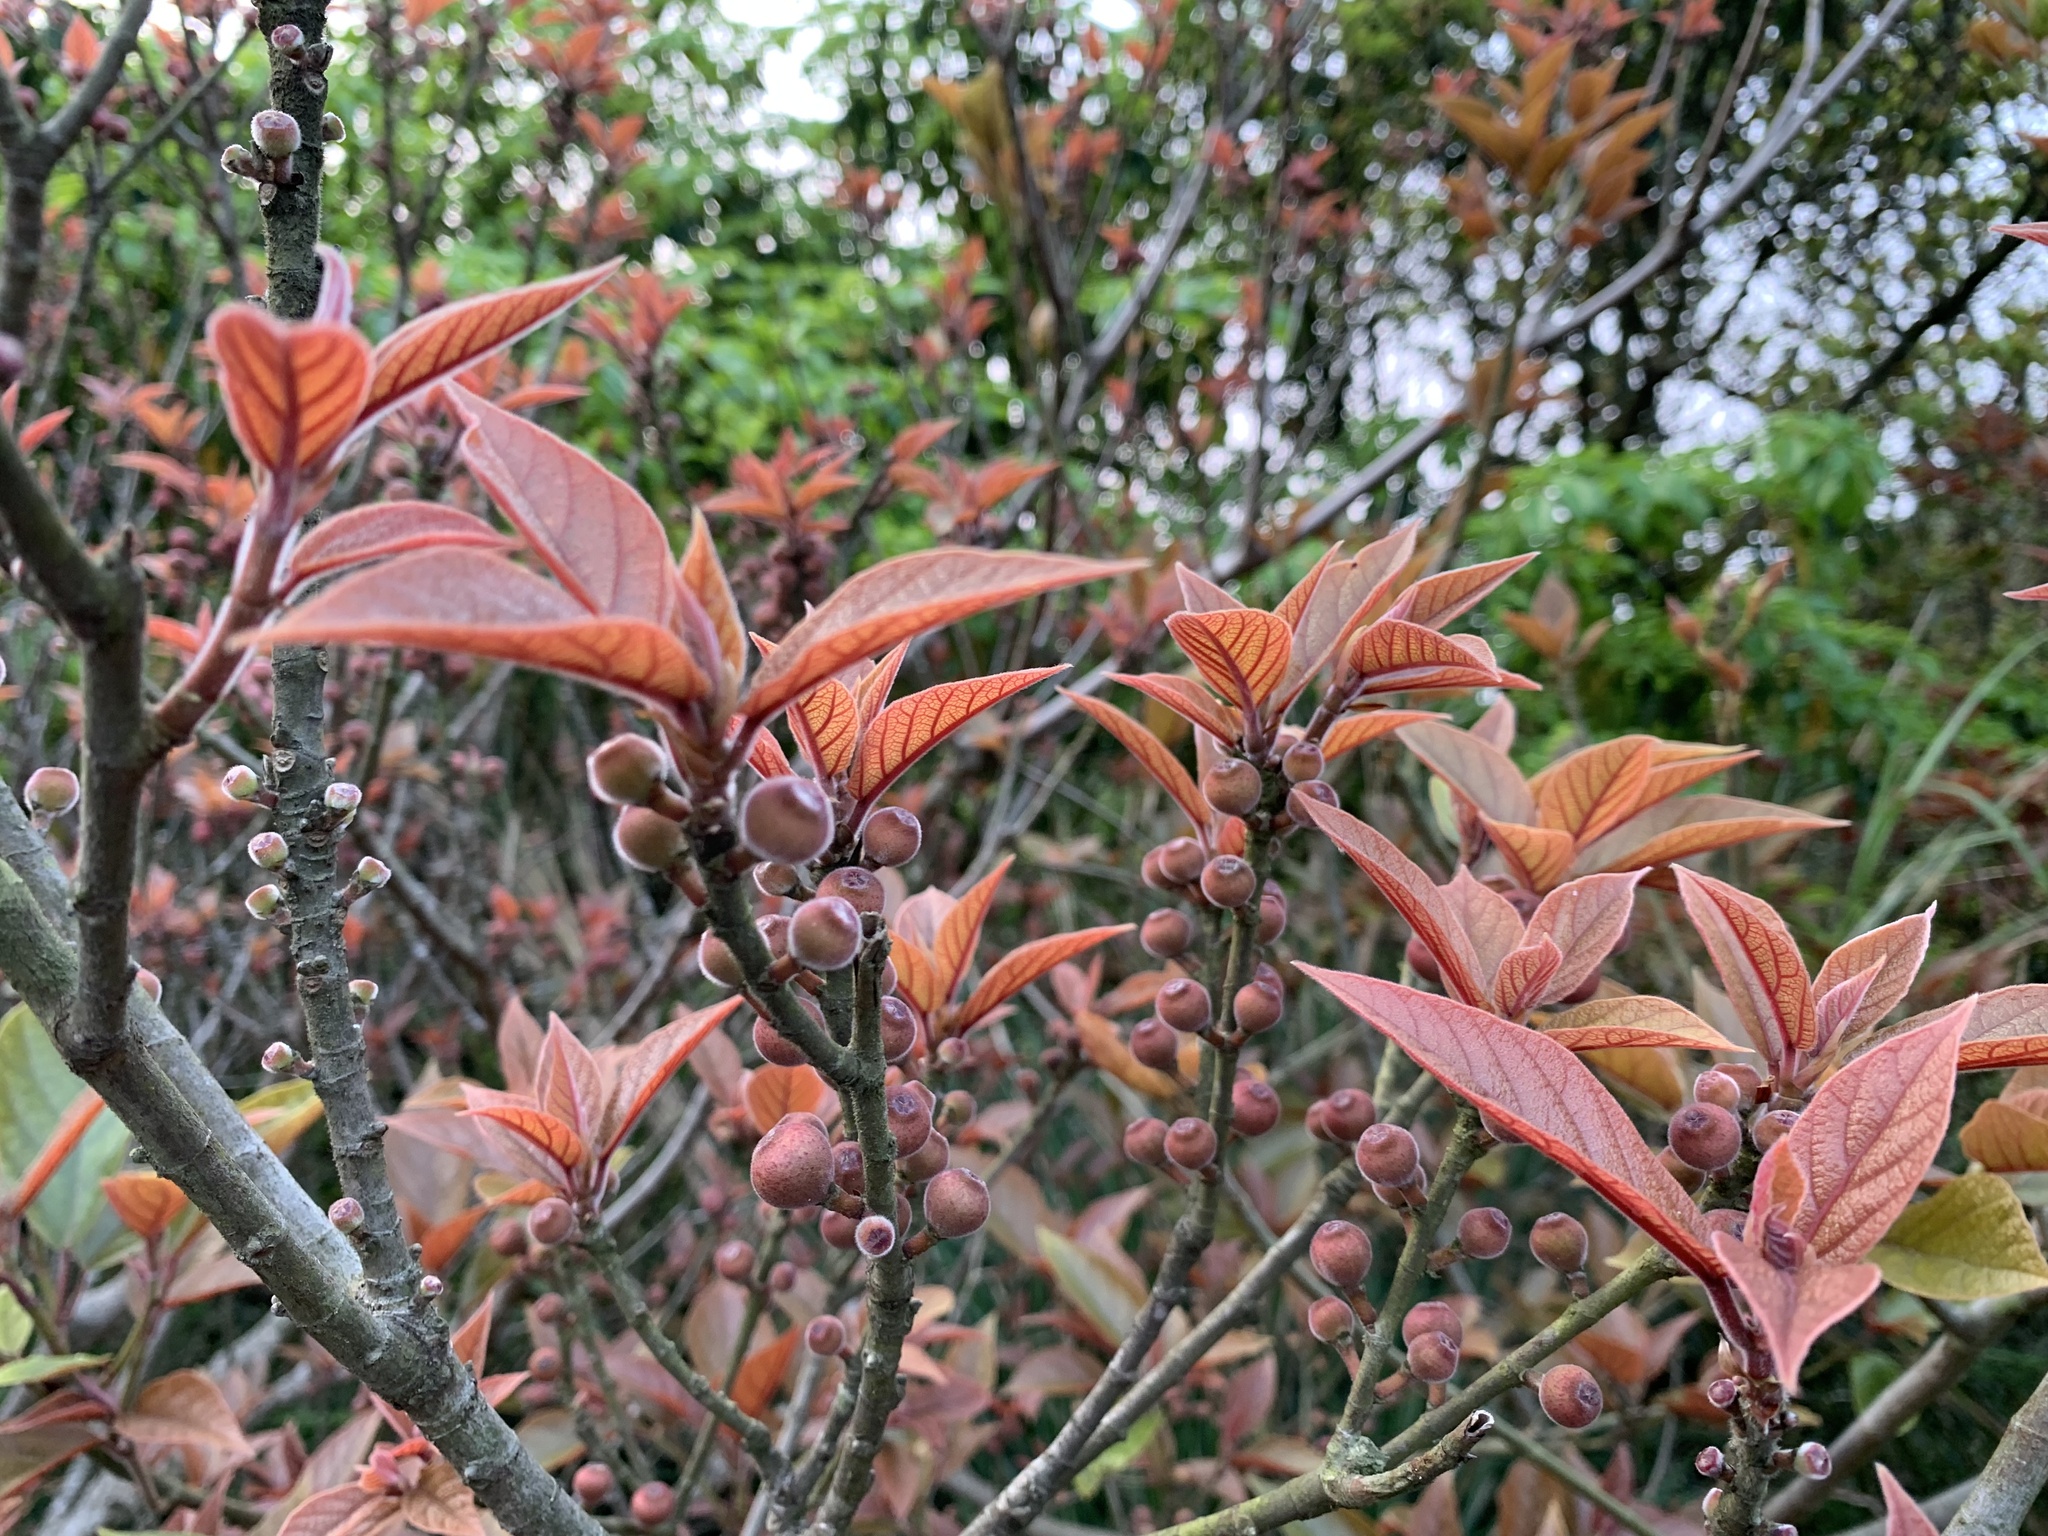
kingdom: Plantae
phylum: Tracheophyta
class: Magnoliopsida
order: Rosales
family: Moraceae
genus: Ficus
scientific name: Ficus erecta
